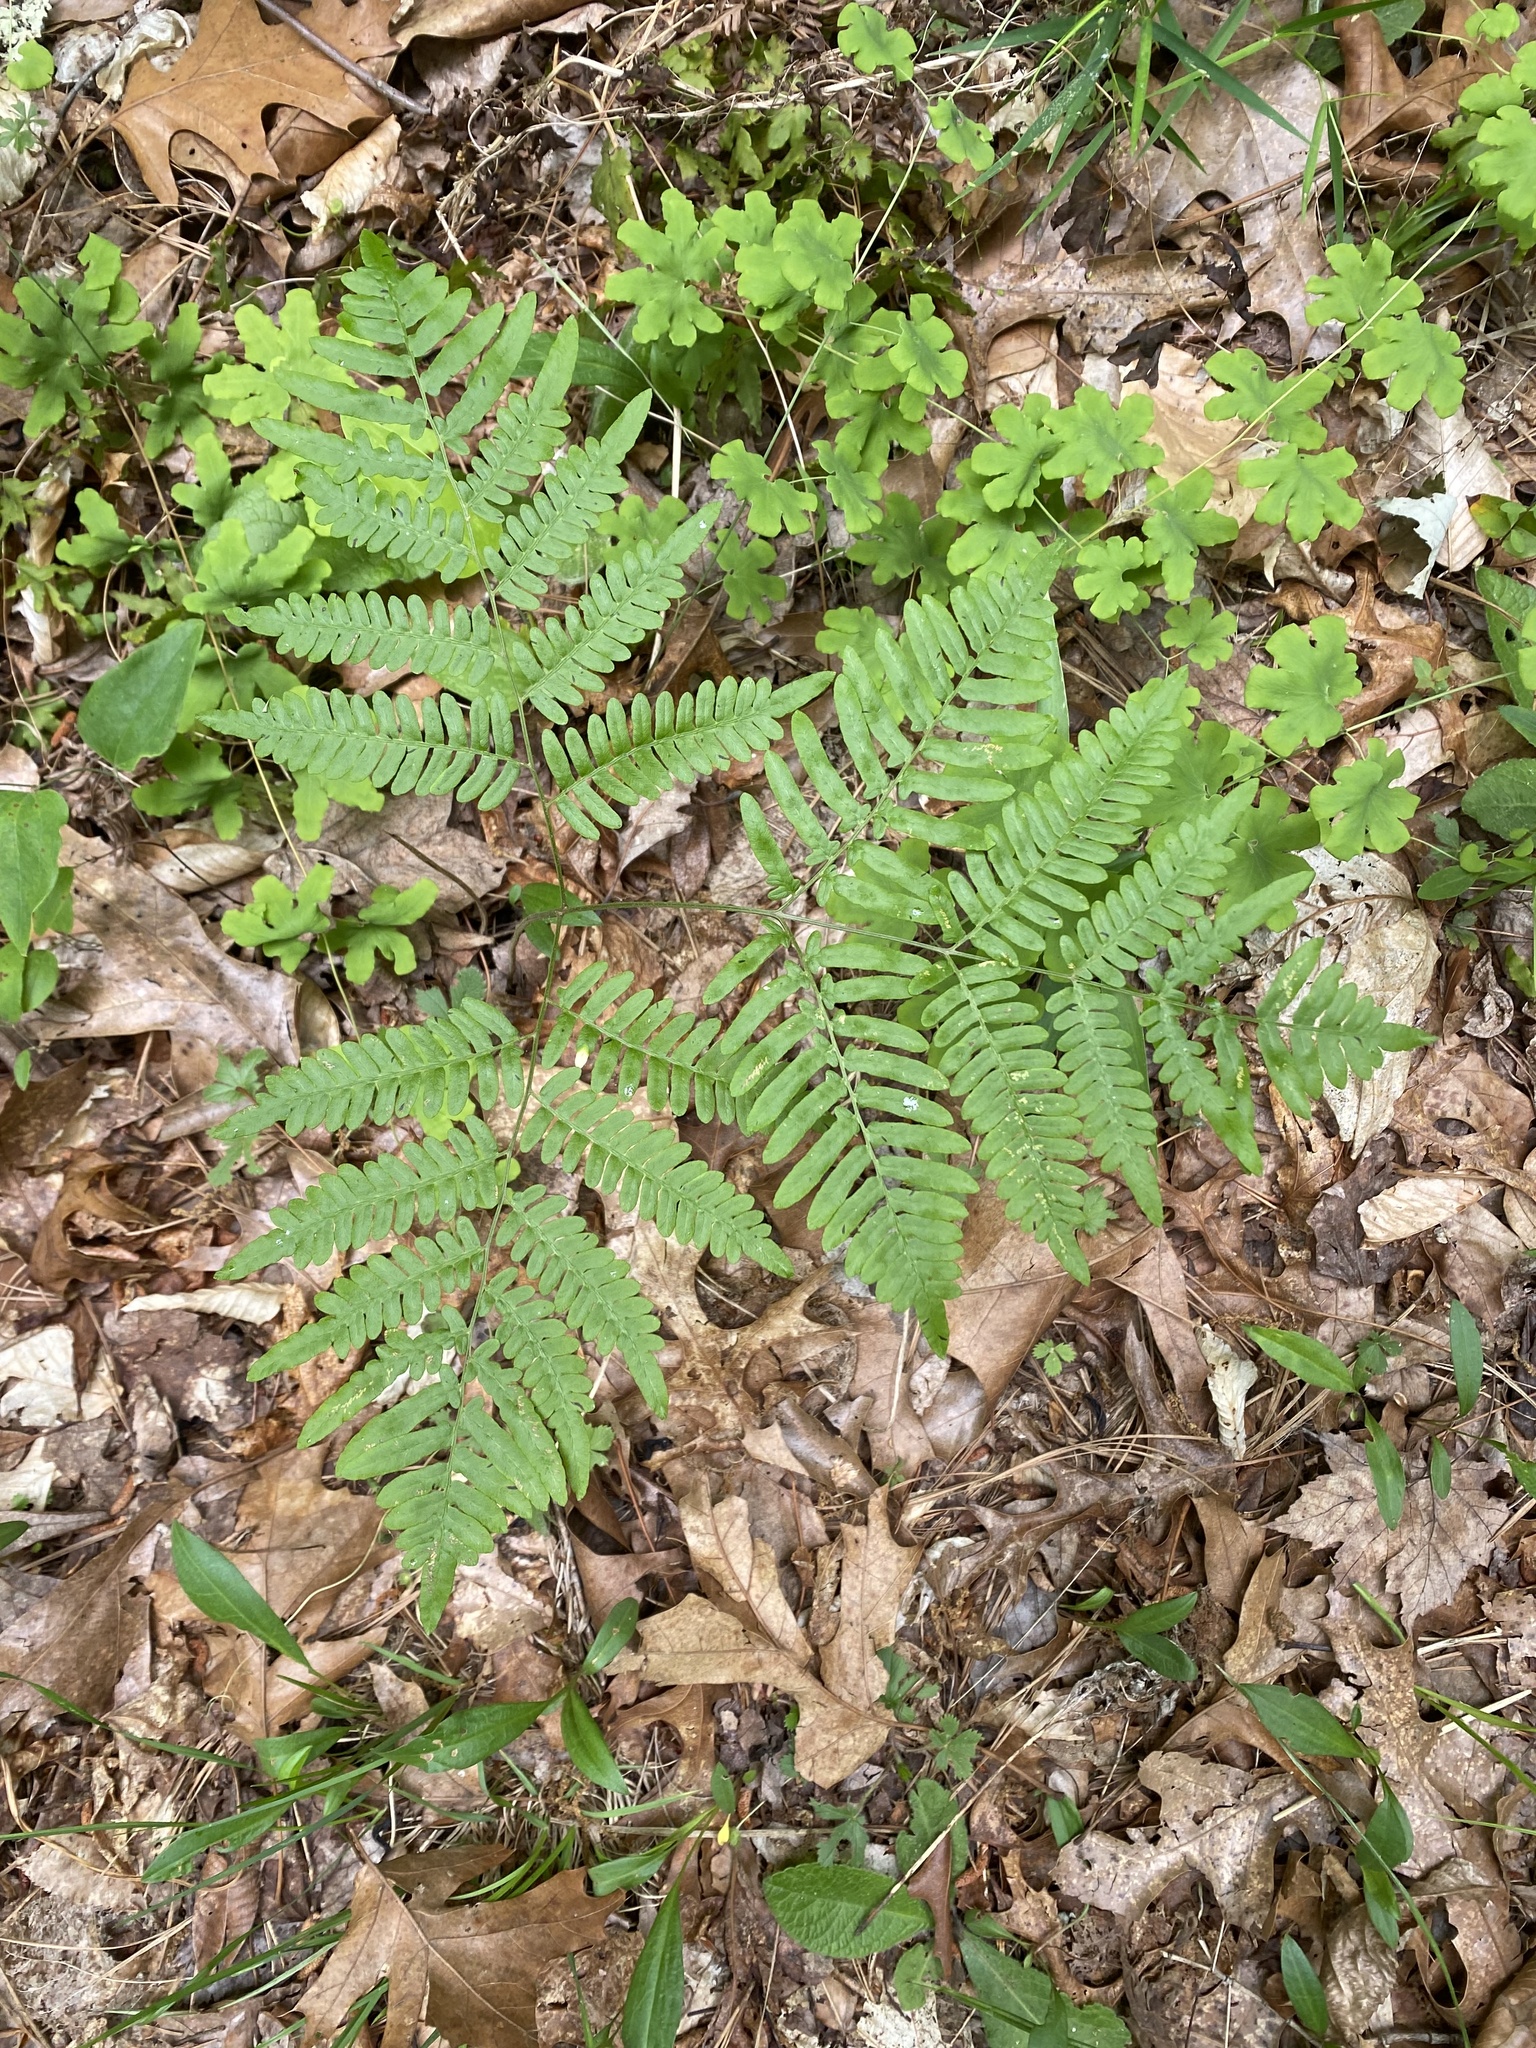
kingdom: Plantae
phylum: Tracheophyta
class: Polypodiopsida
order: Polypodiales
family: Dennstaedtiaceae
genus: Pteridium
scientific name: Pteridium aquilinum
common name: Bracken
